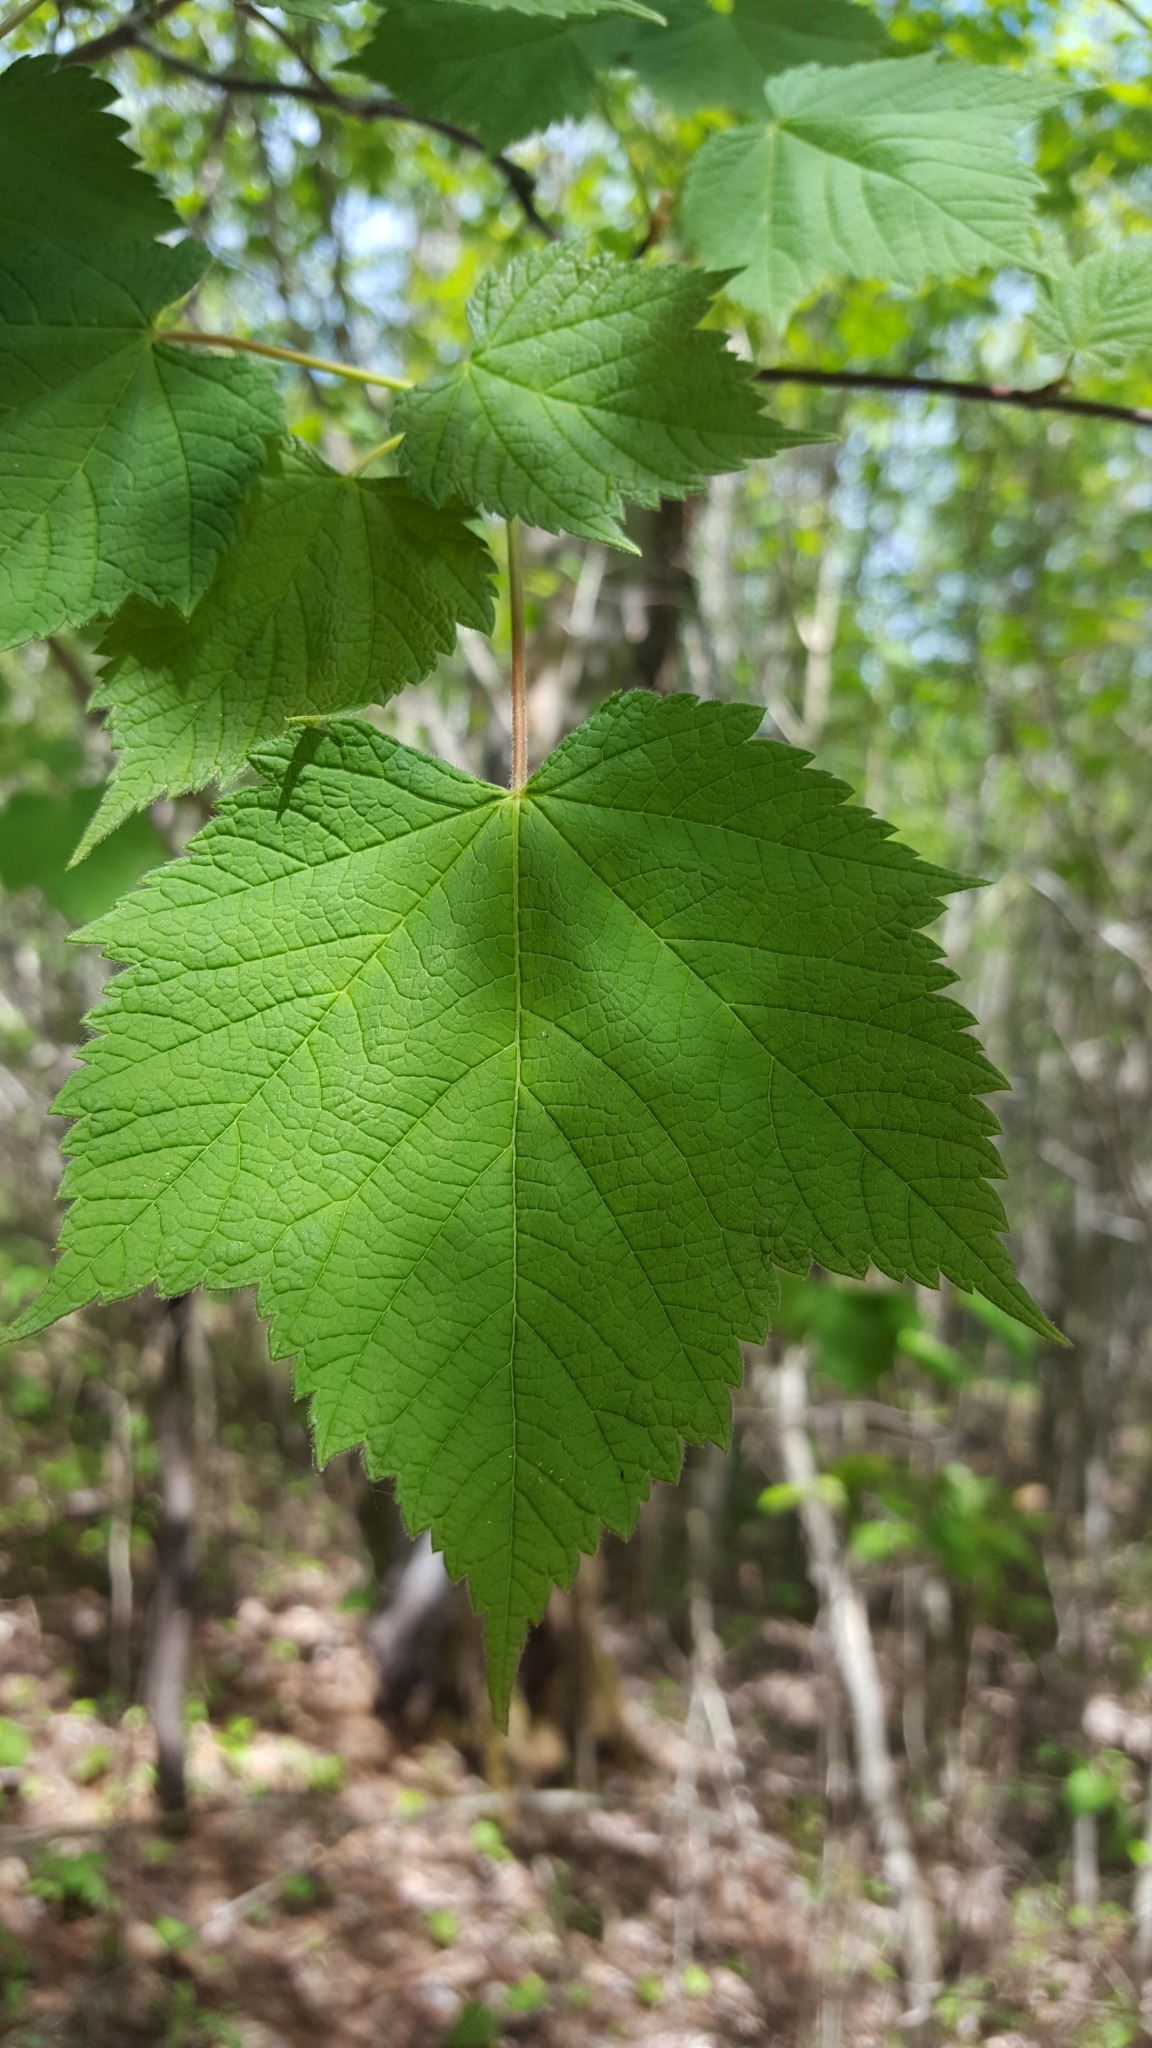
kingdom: Plantae
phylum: Tracheophyta
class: Magnoliopsida
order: Sapindales
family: Sapindaceae
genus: Acer
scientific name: Acer spicatum
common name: Mountain maple
